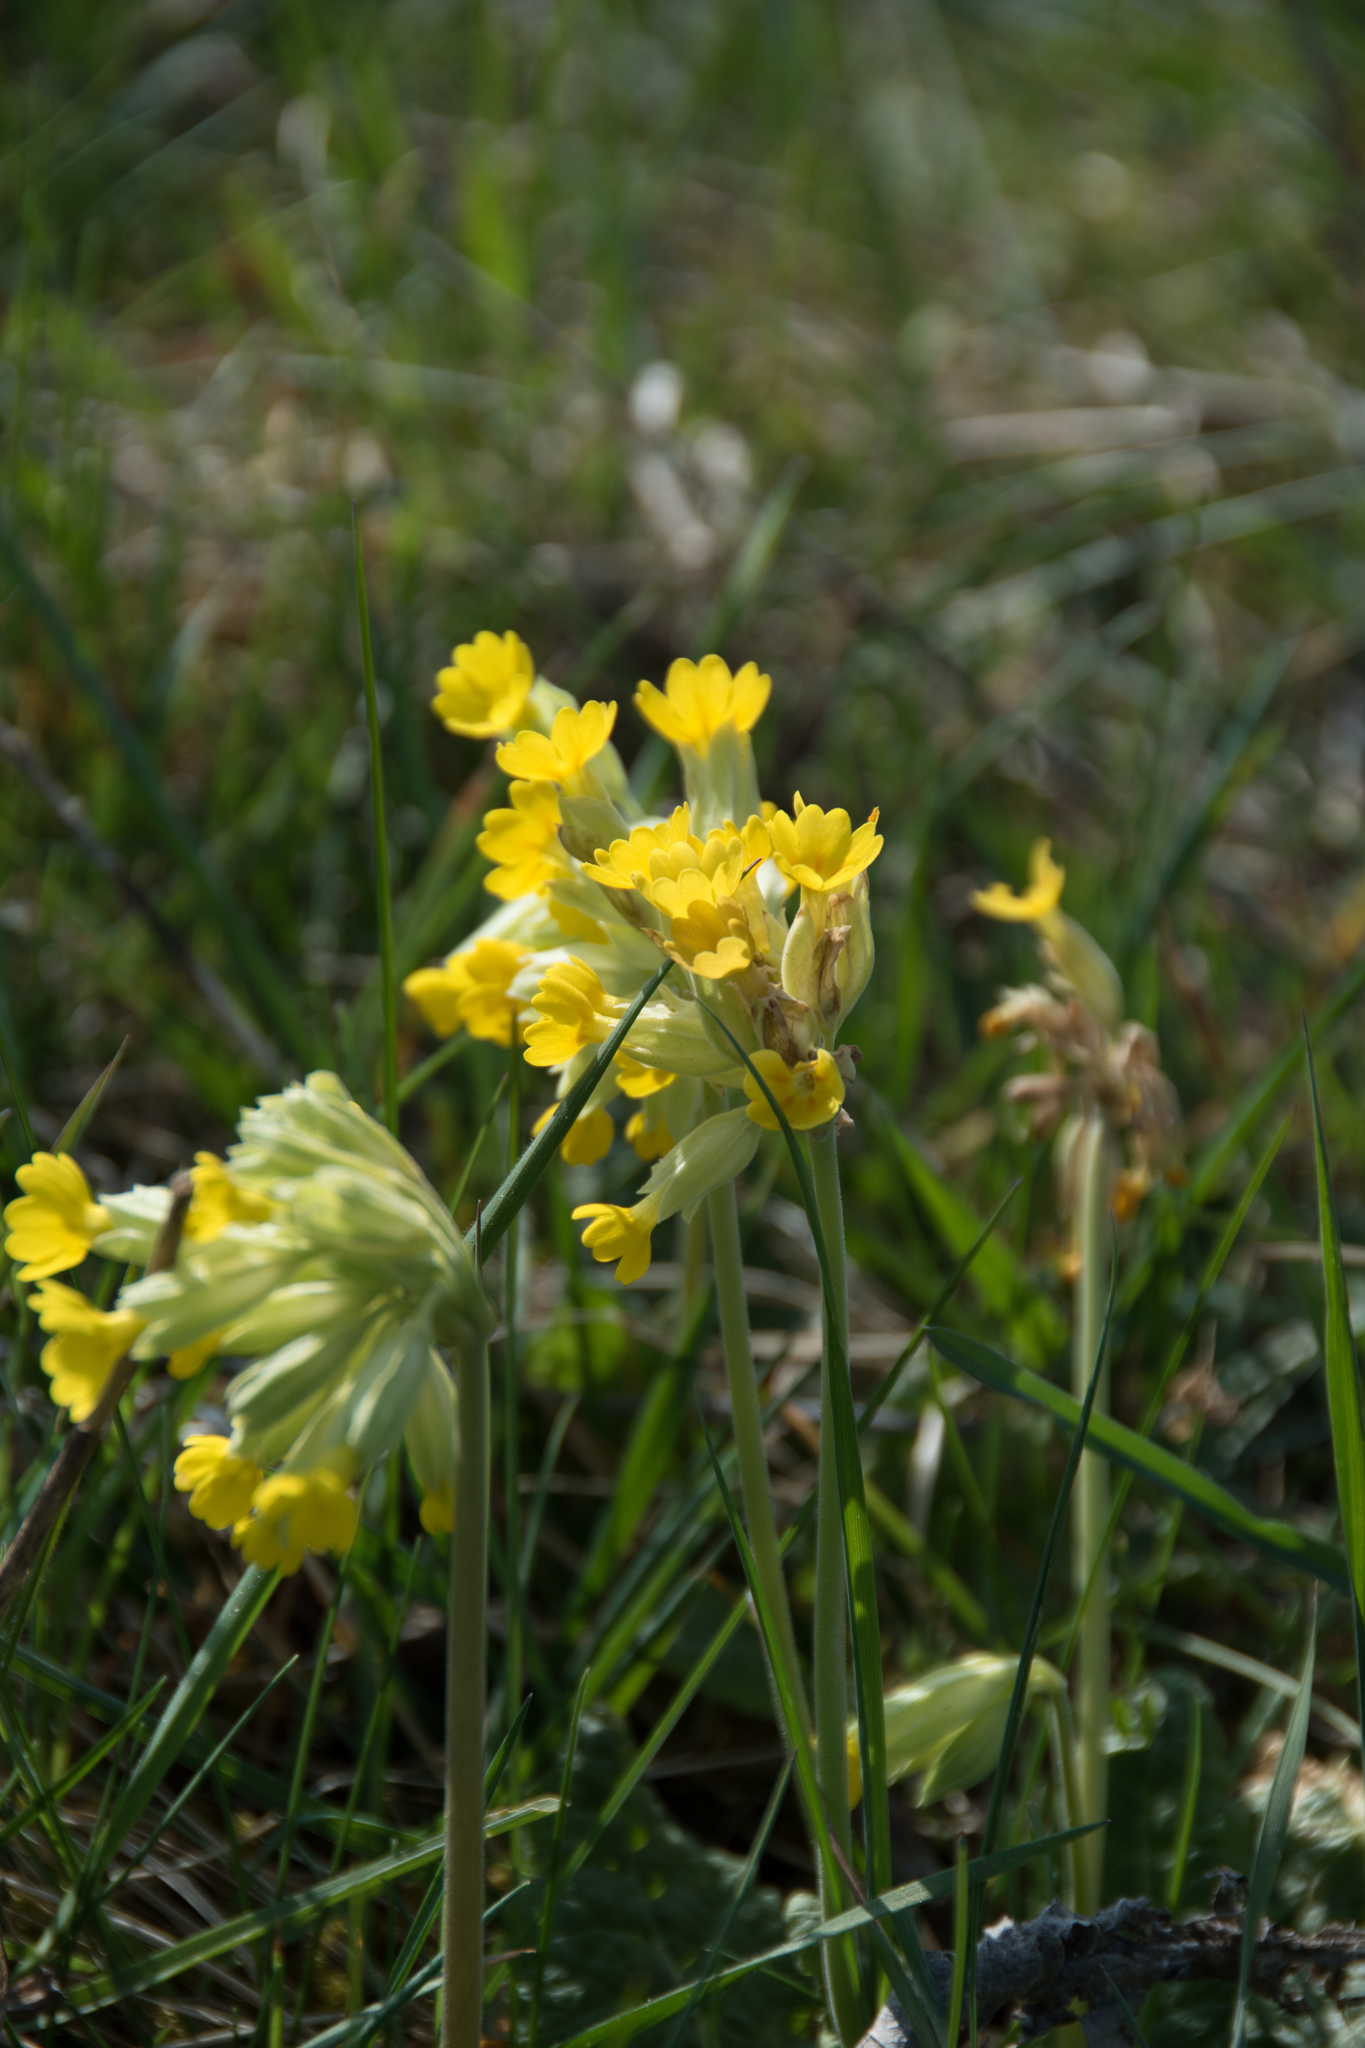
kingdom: Plantae
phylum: Tracheophyta
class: Magnoliopsida
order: Ericales
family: Primulaceae
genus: Primula
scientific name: Primula veris
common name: Cowslip
